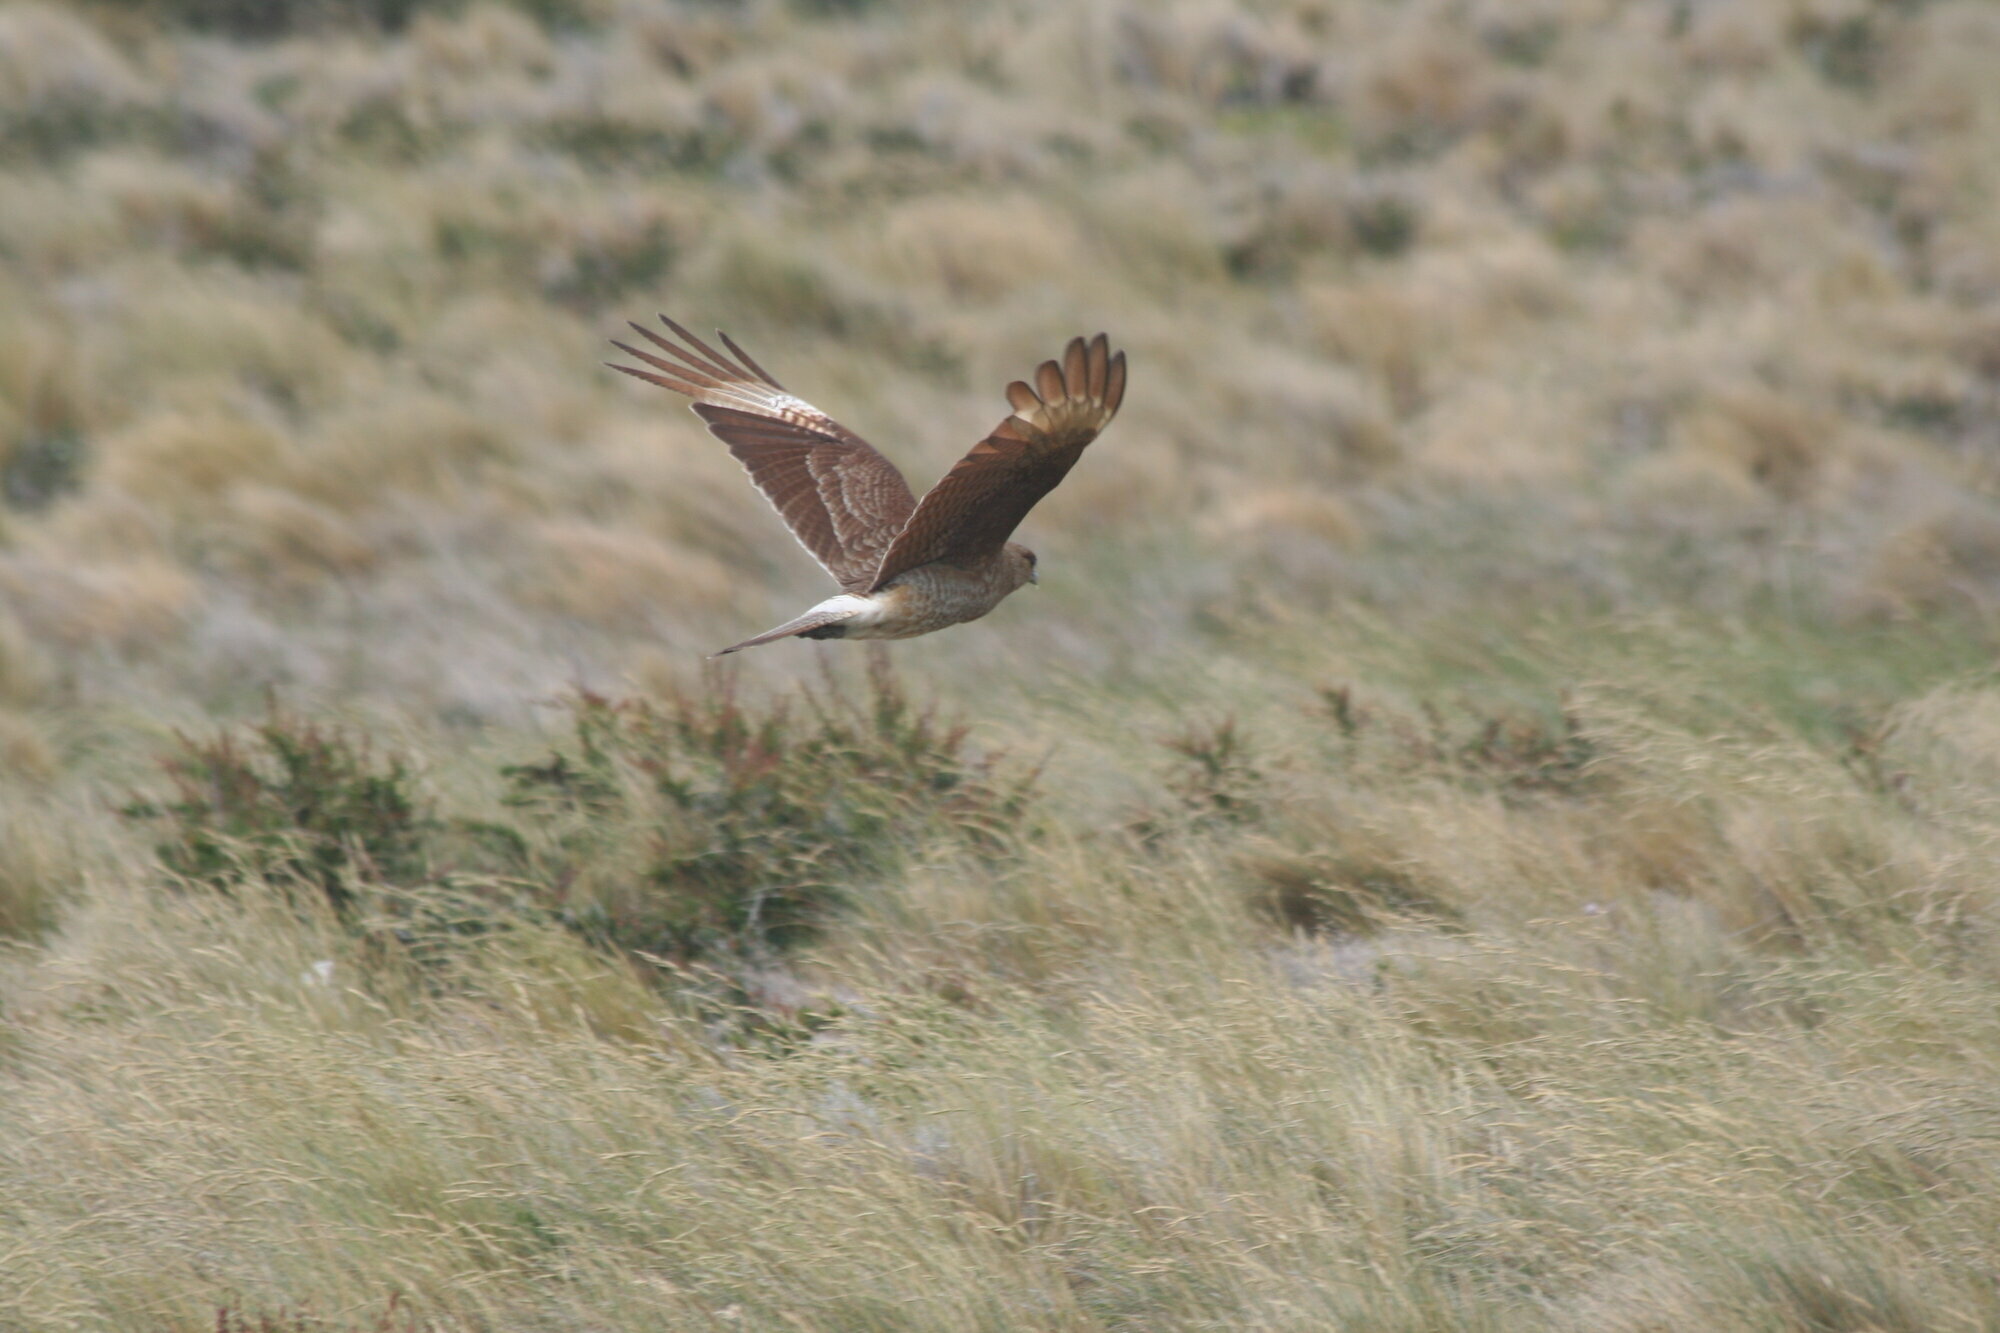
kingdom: Animalia
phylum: Chordata
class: Aves
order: Falconiformes
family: Falconidae
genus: Daptrius
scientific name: Daptrius
